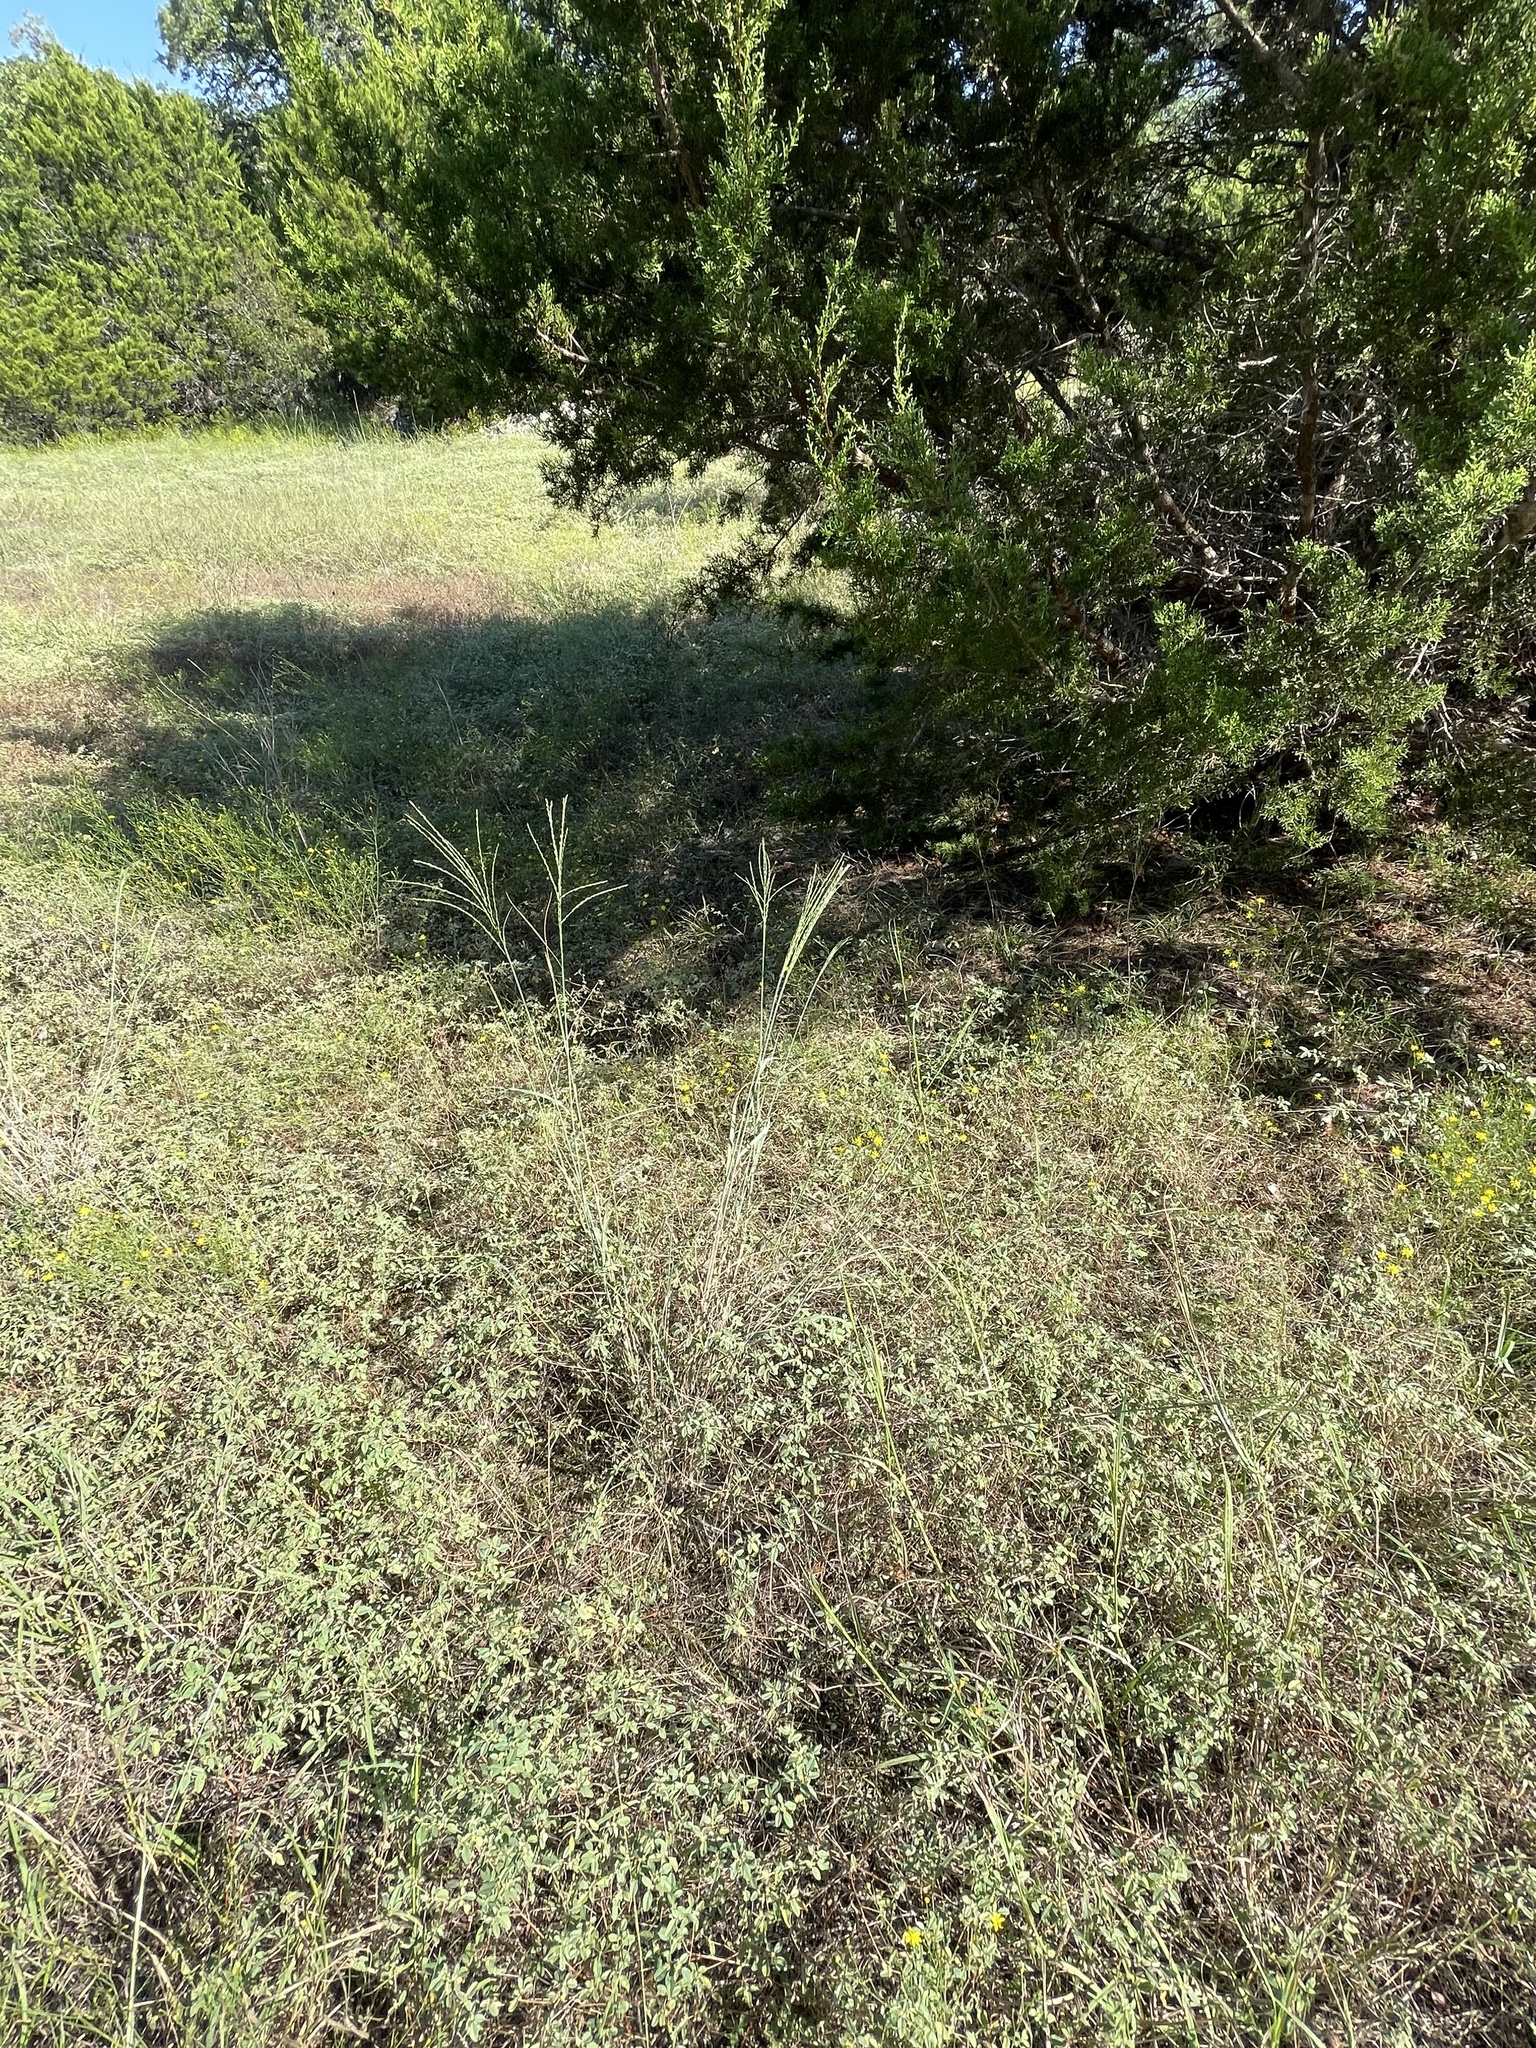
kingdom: Plantae
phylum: Tracheophyta
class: Liliopsida
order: Poales
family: Poaceae
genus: Disakisperma
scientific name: Disakisperma dubium
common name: Green sprangletop
